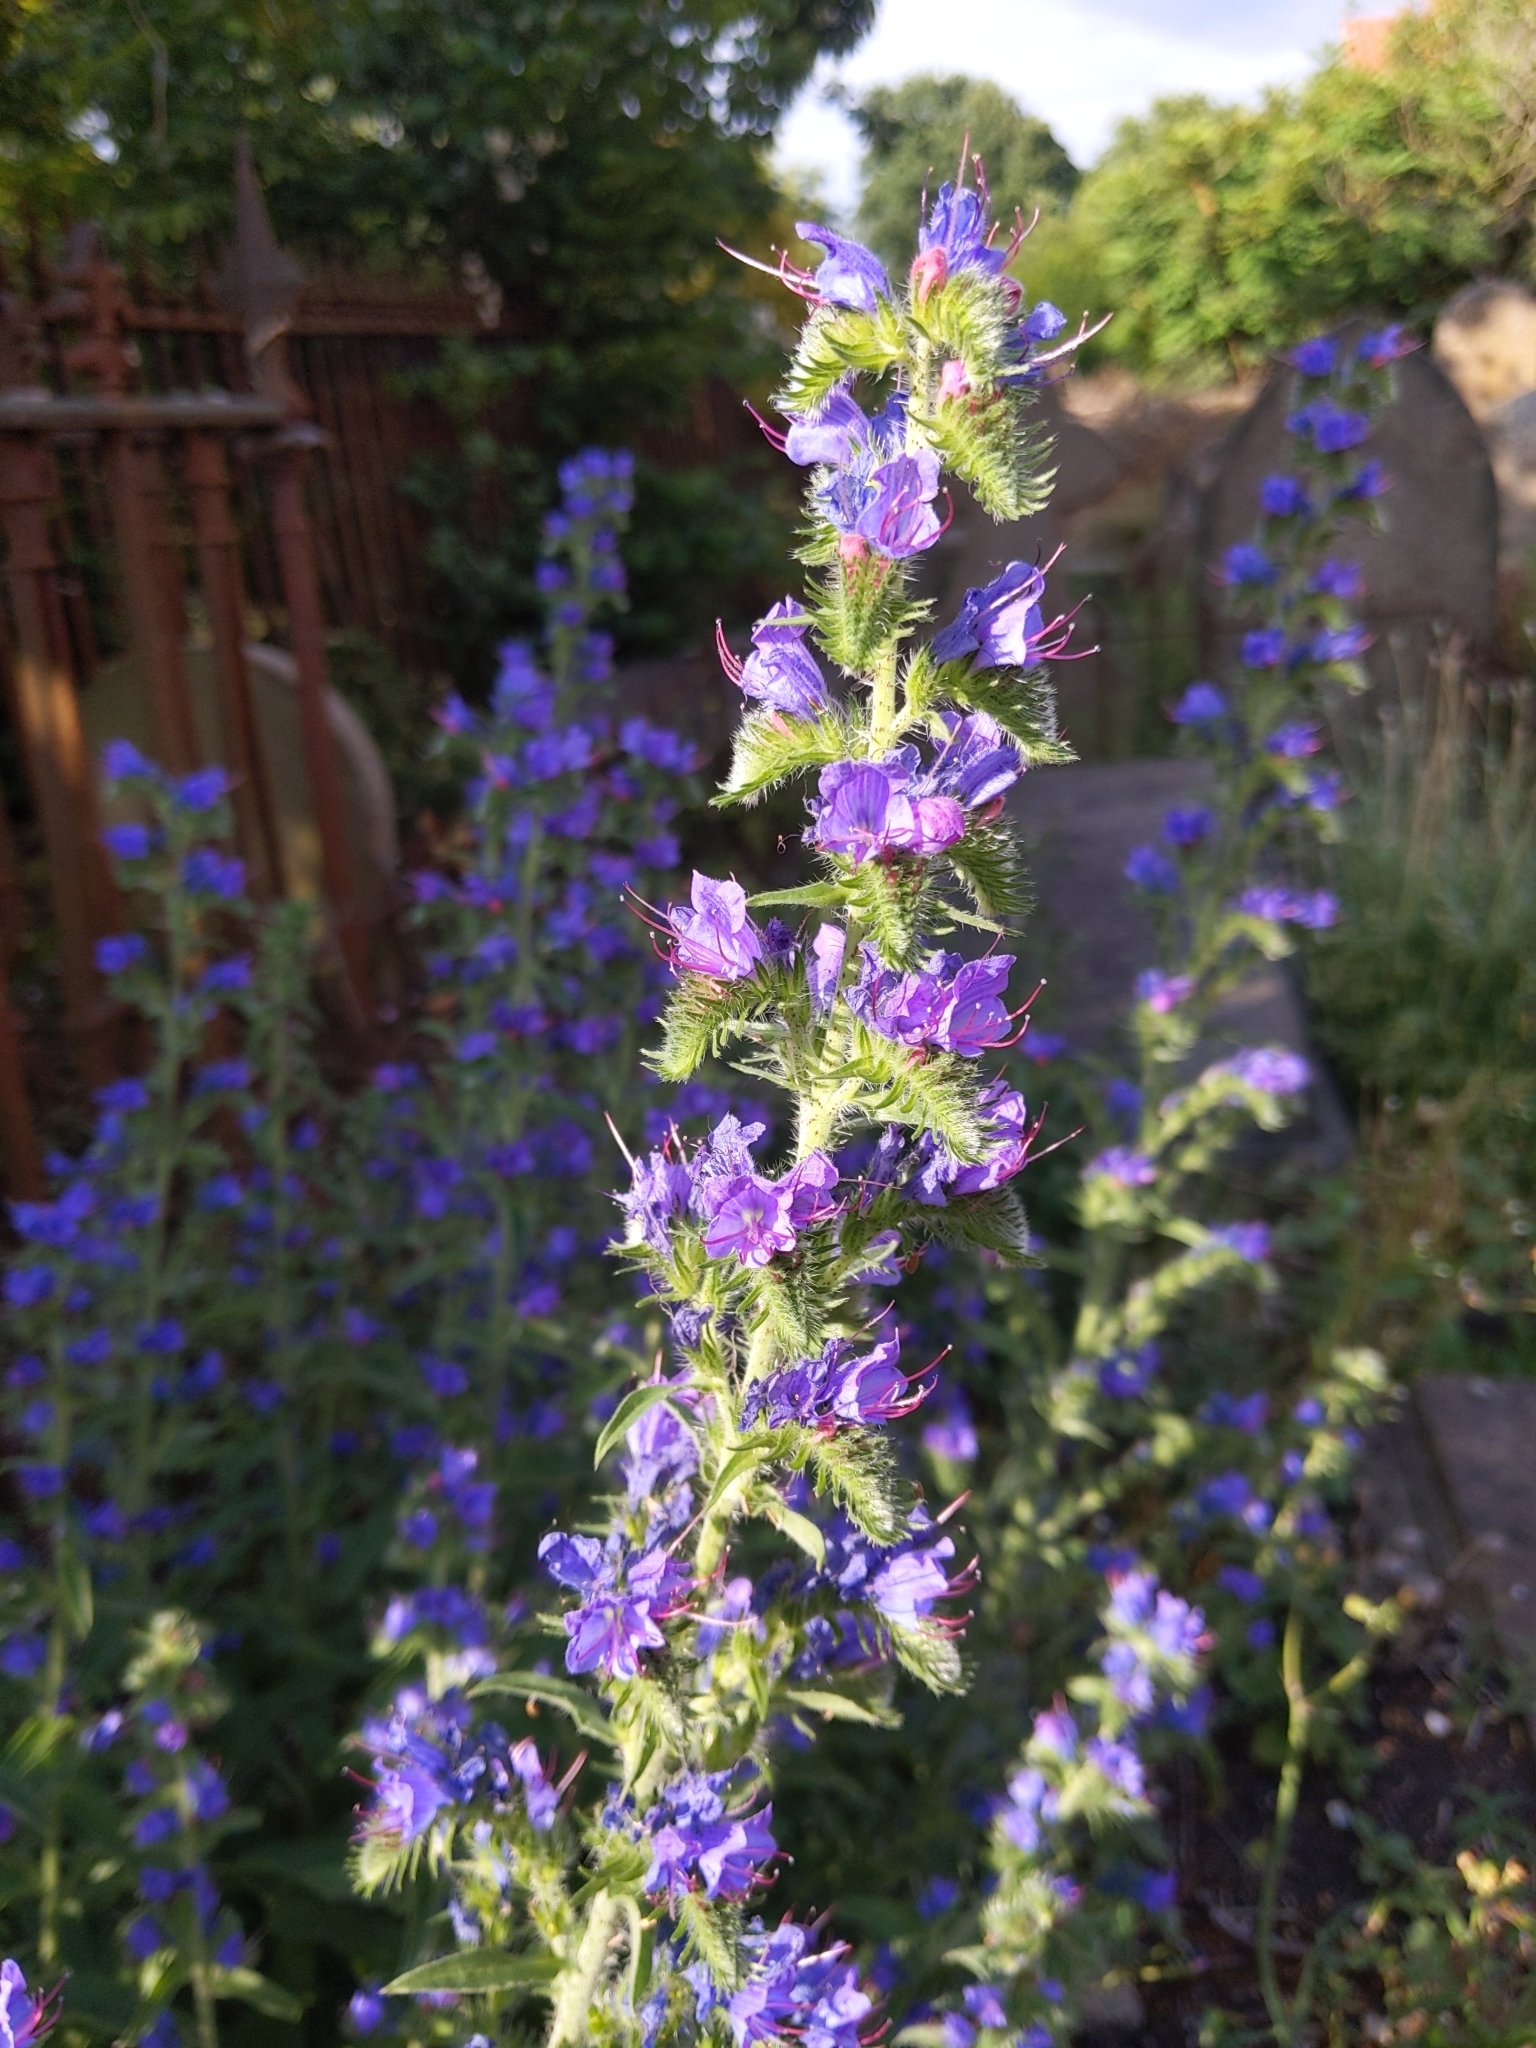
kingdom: Plantae
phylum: Tracheophyta
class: Magnoliopsida
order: Boraginales
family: Boraginaceae
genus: Echium
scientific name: Echium vulgare
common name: Common viper's bugloss
